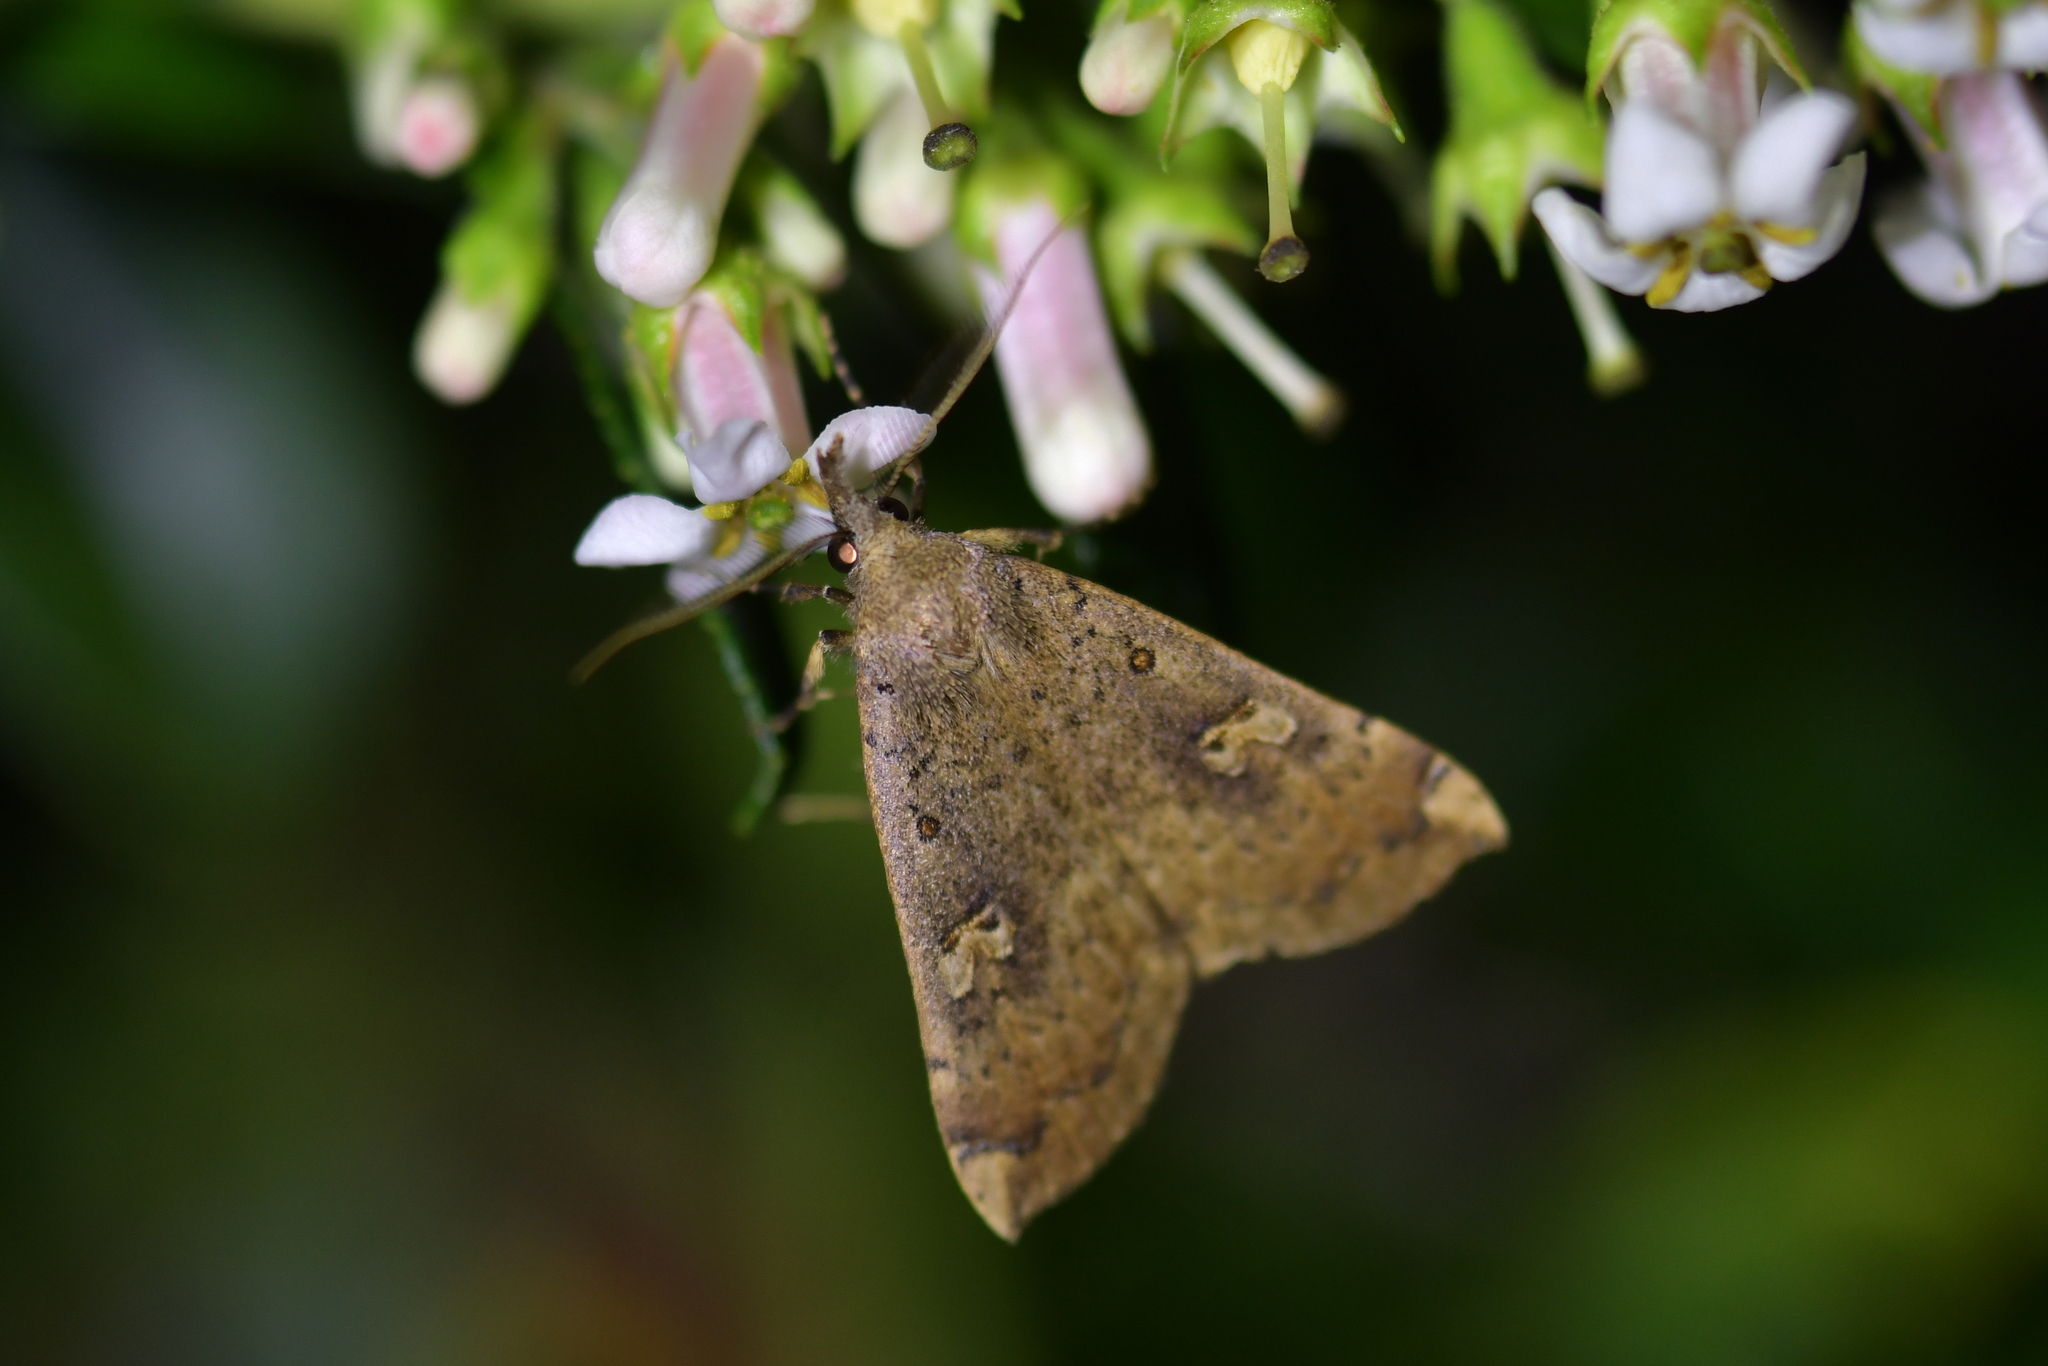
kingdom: Animalia
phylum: Arthropoda
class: Insecta
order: Lepidoptera
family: Erebidae
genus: Rhapsa
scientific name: Rhapsa scotosialis
